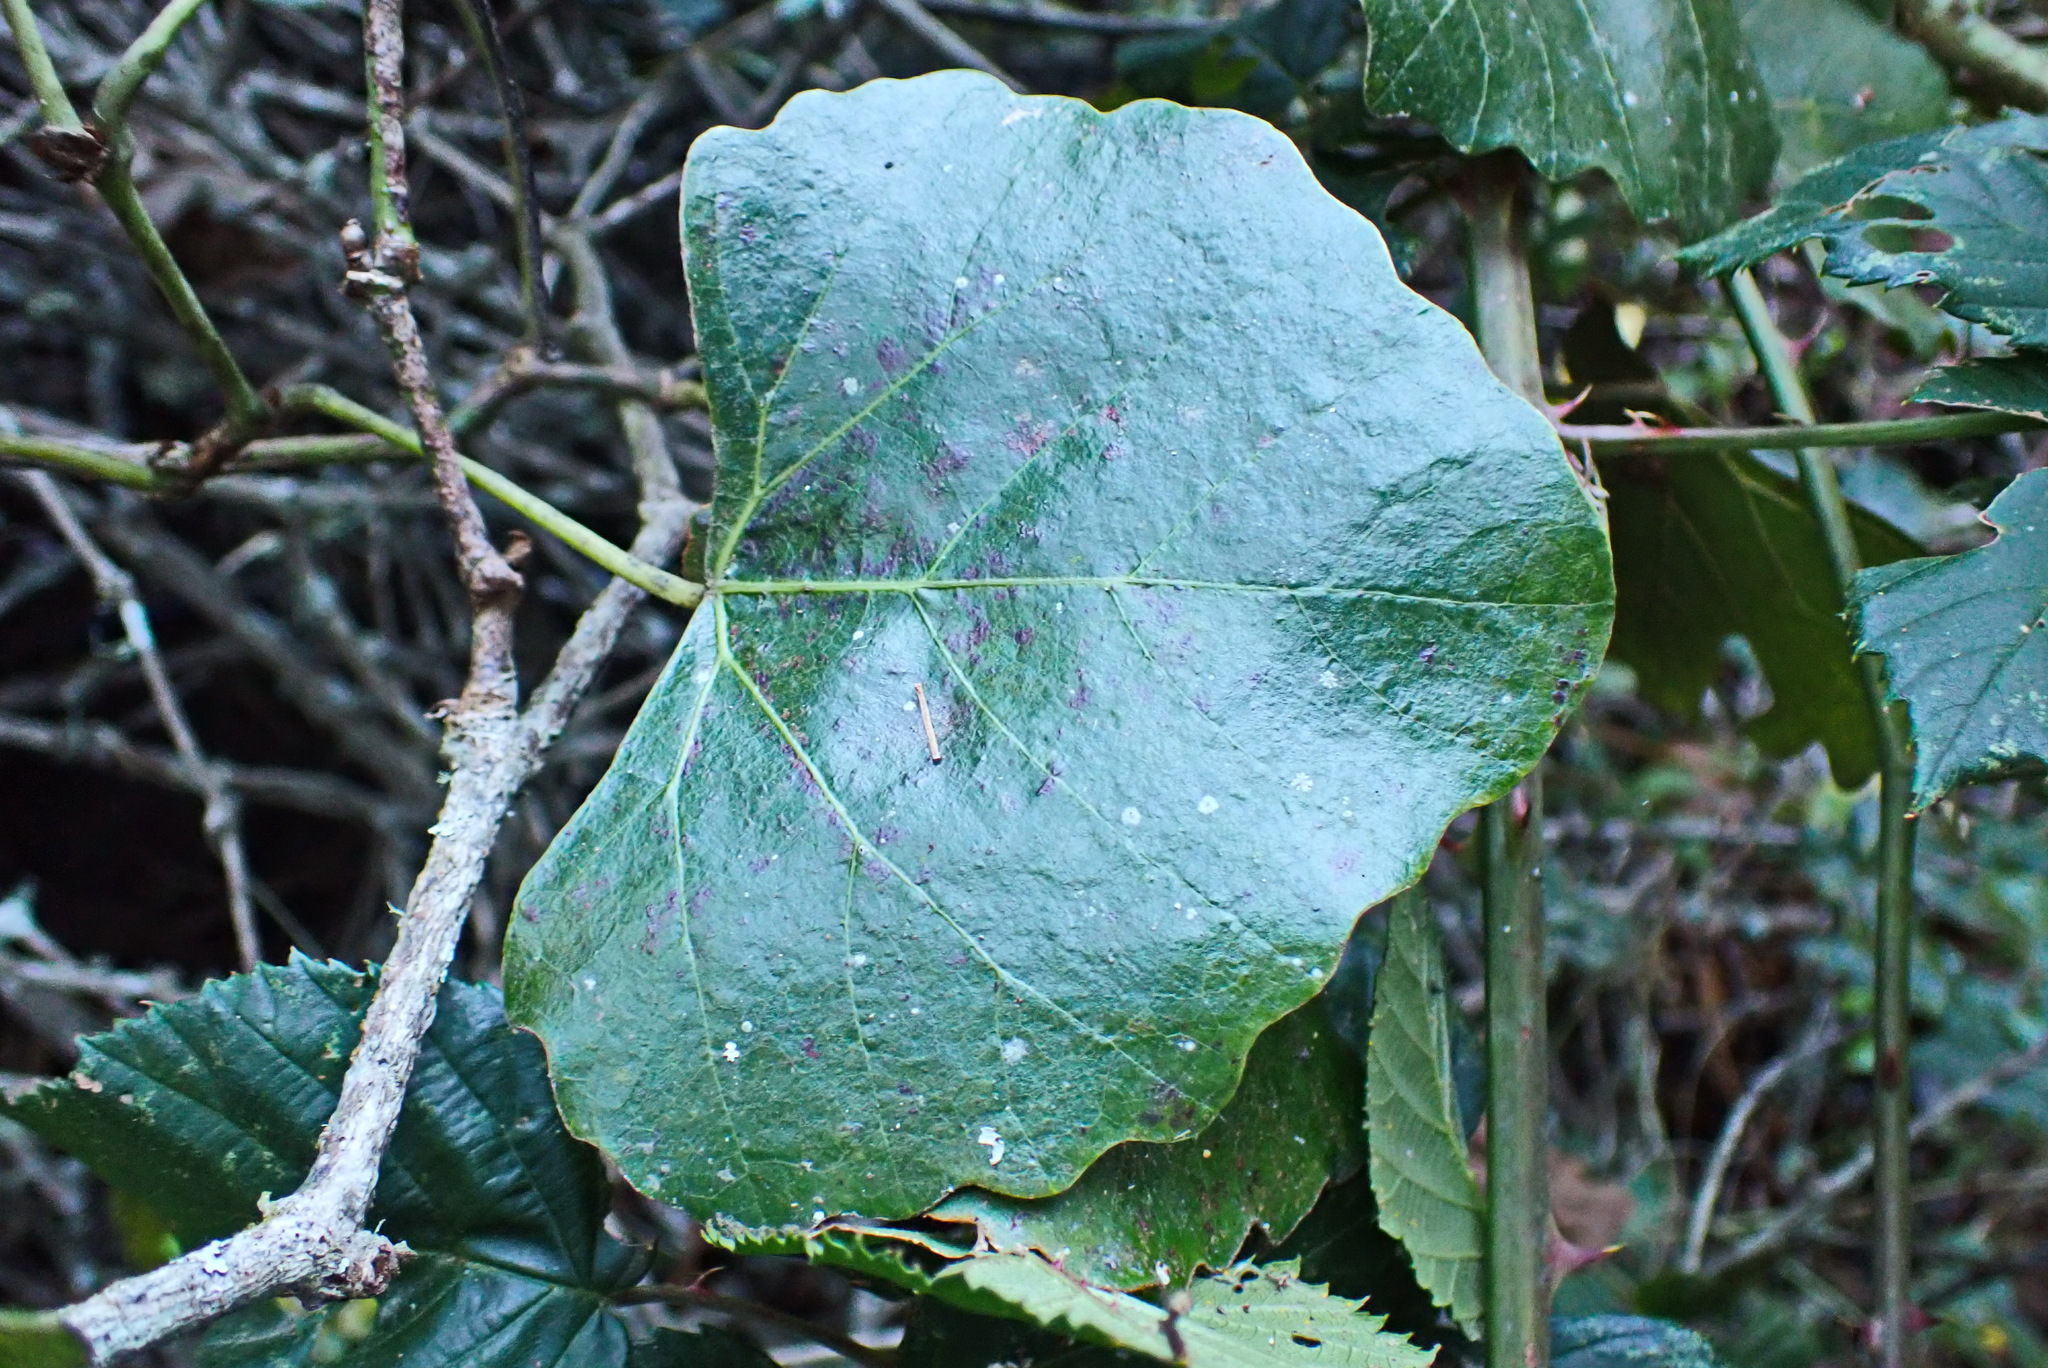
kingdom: Plantae
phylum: Tracheophyta
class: Magnoliopsida
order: Vitales
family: Vitaceae
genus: Rhoicissus
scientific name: Rhoicissus tomentosa
